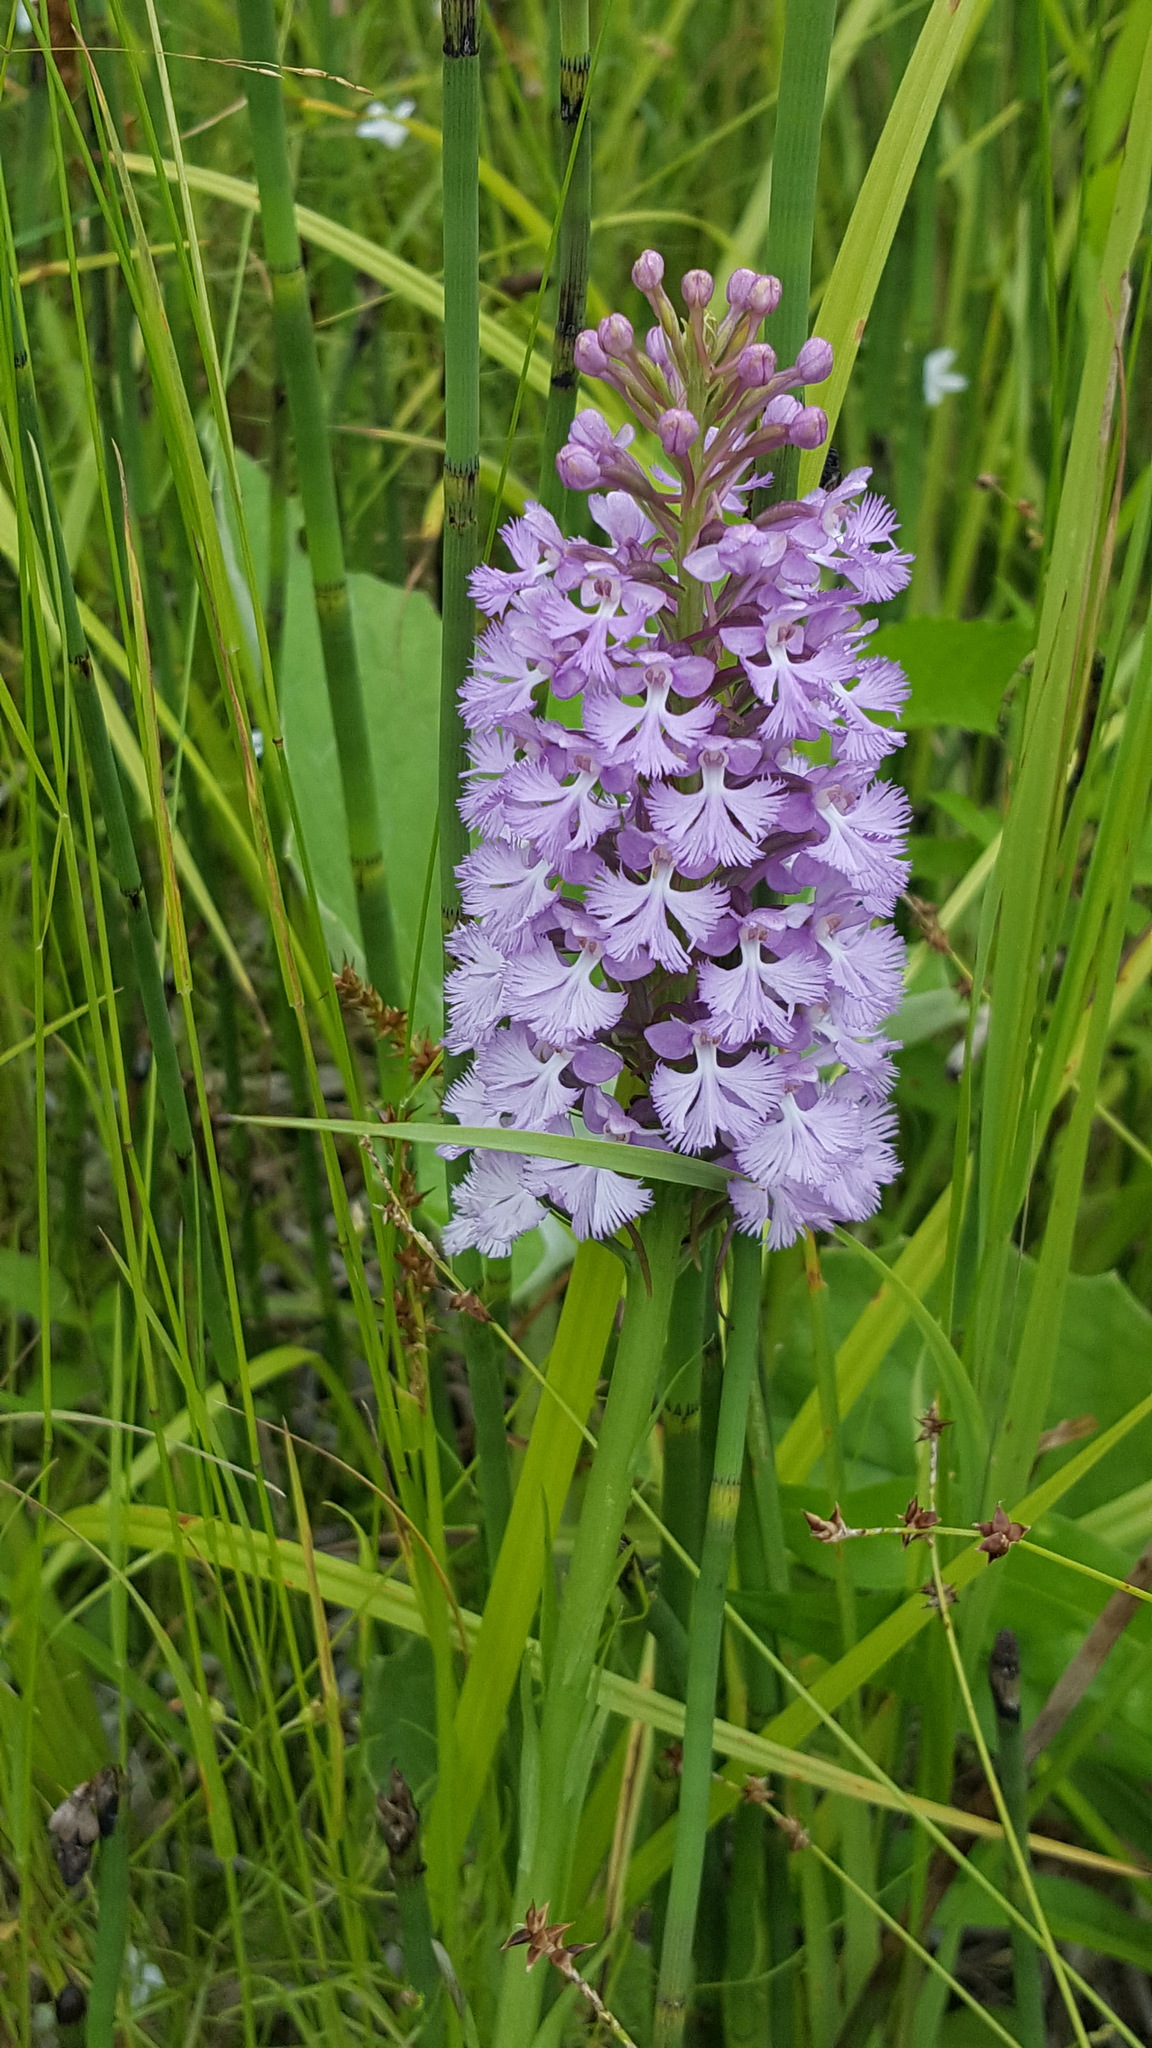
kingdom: Plantae
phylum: Tracheophyta
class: Liliopsida
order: Asparagales
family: Orchidaceae
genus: Platanthera
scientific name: Platanthera psycodes
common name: Lesser purple fringed orchid
